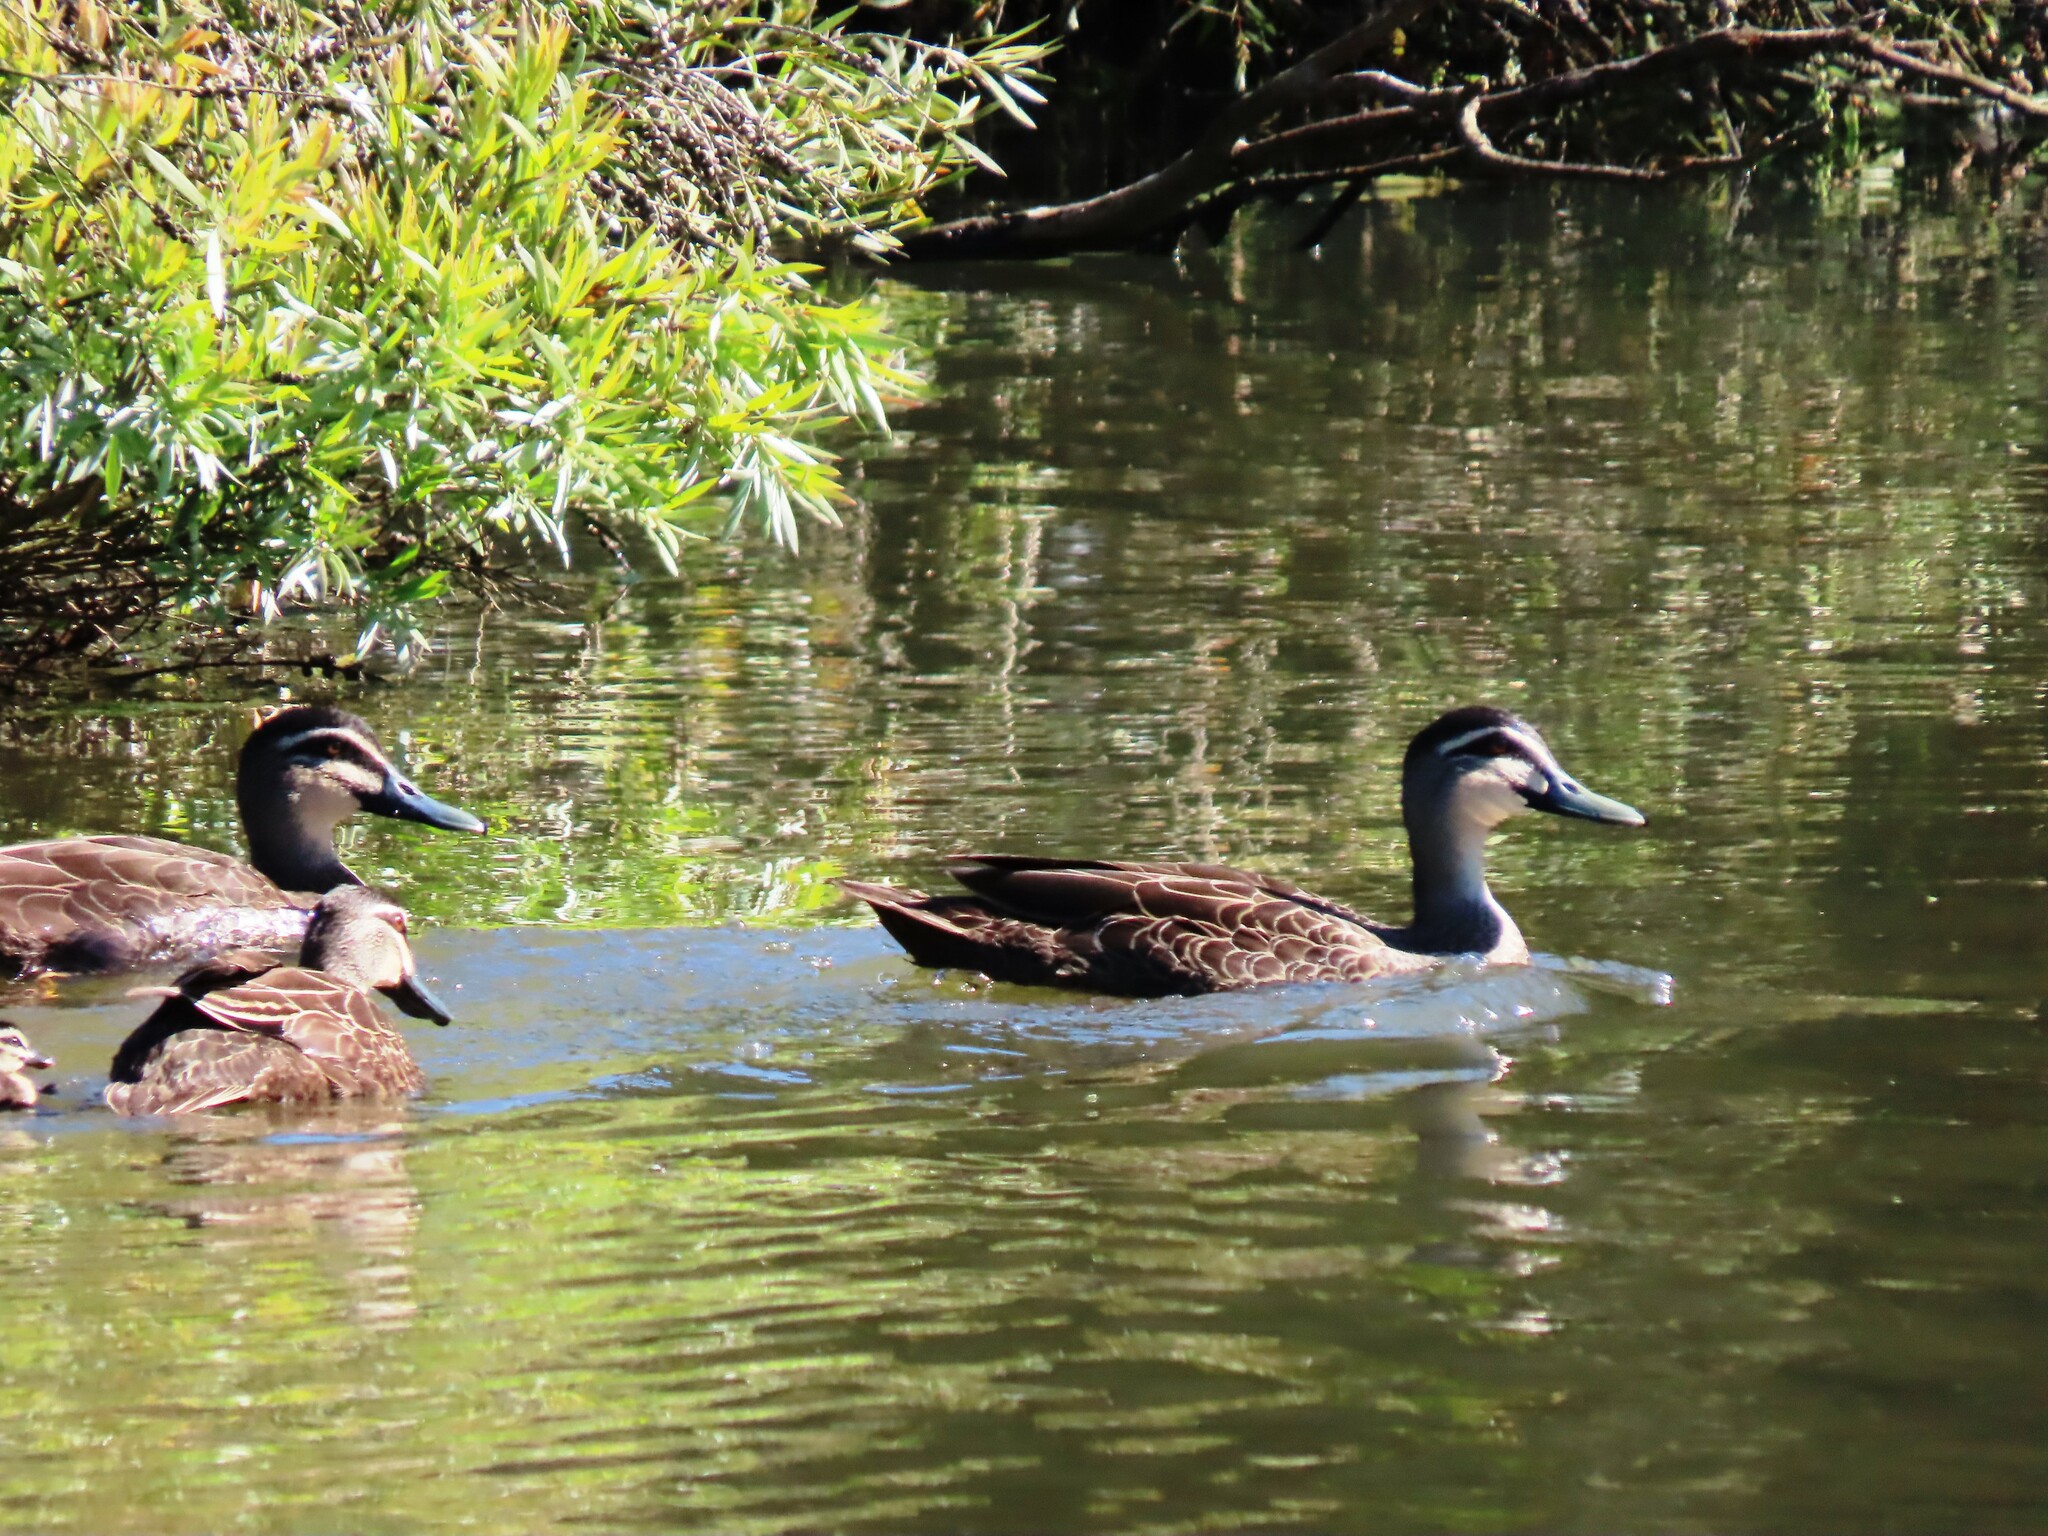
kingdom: Animalia
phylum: Chordata
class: Aves
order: Anseriformes
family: Anatidae
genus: Anas
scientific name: Anas superciliosa
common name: Pacific black duck
